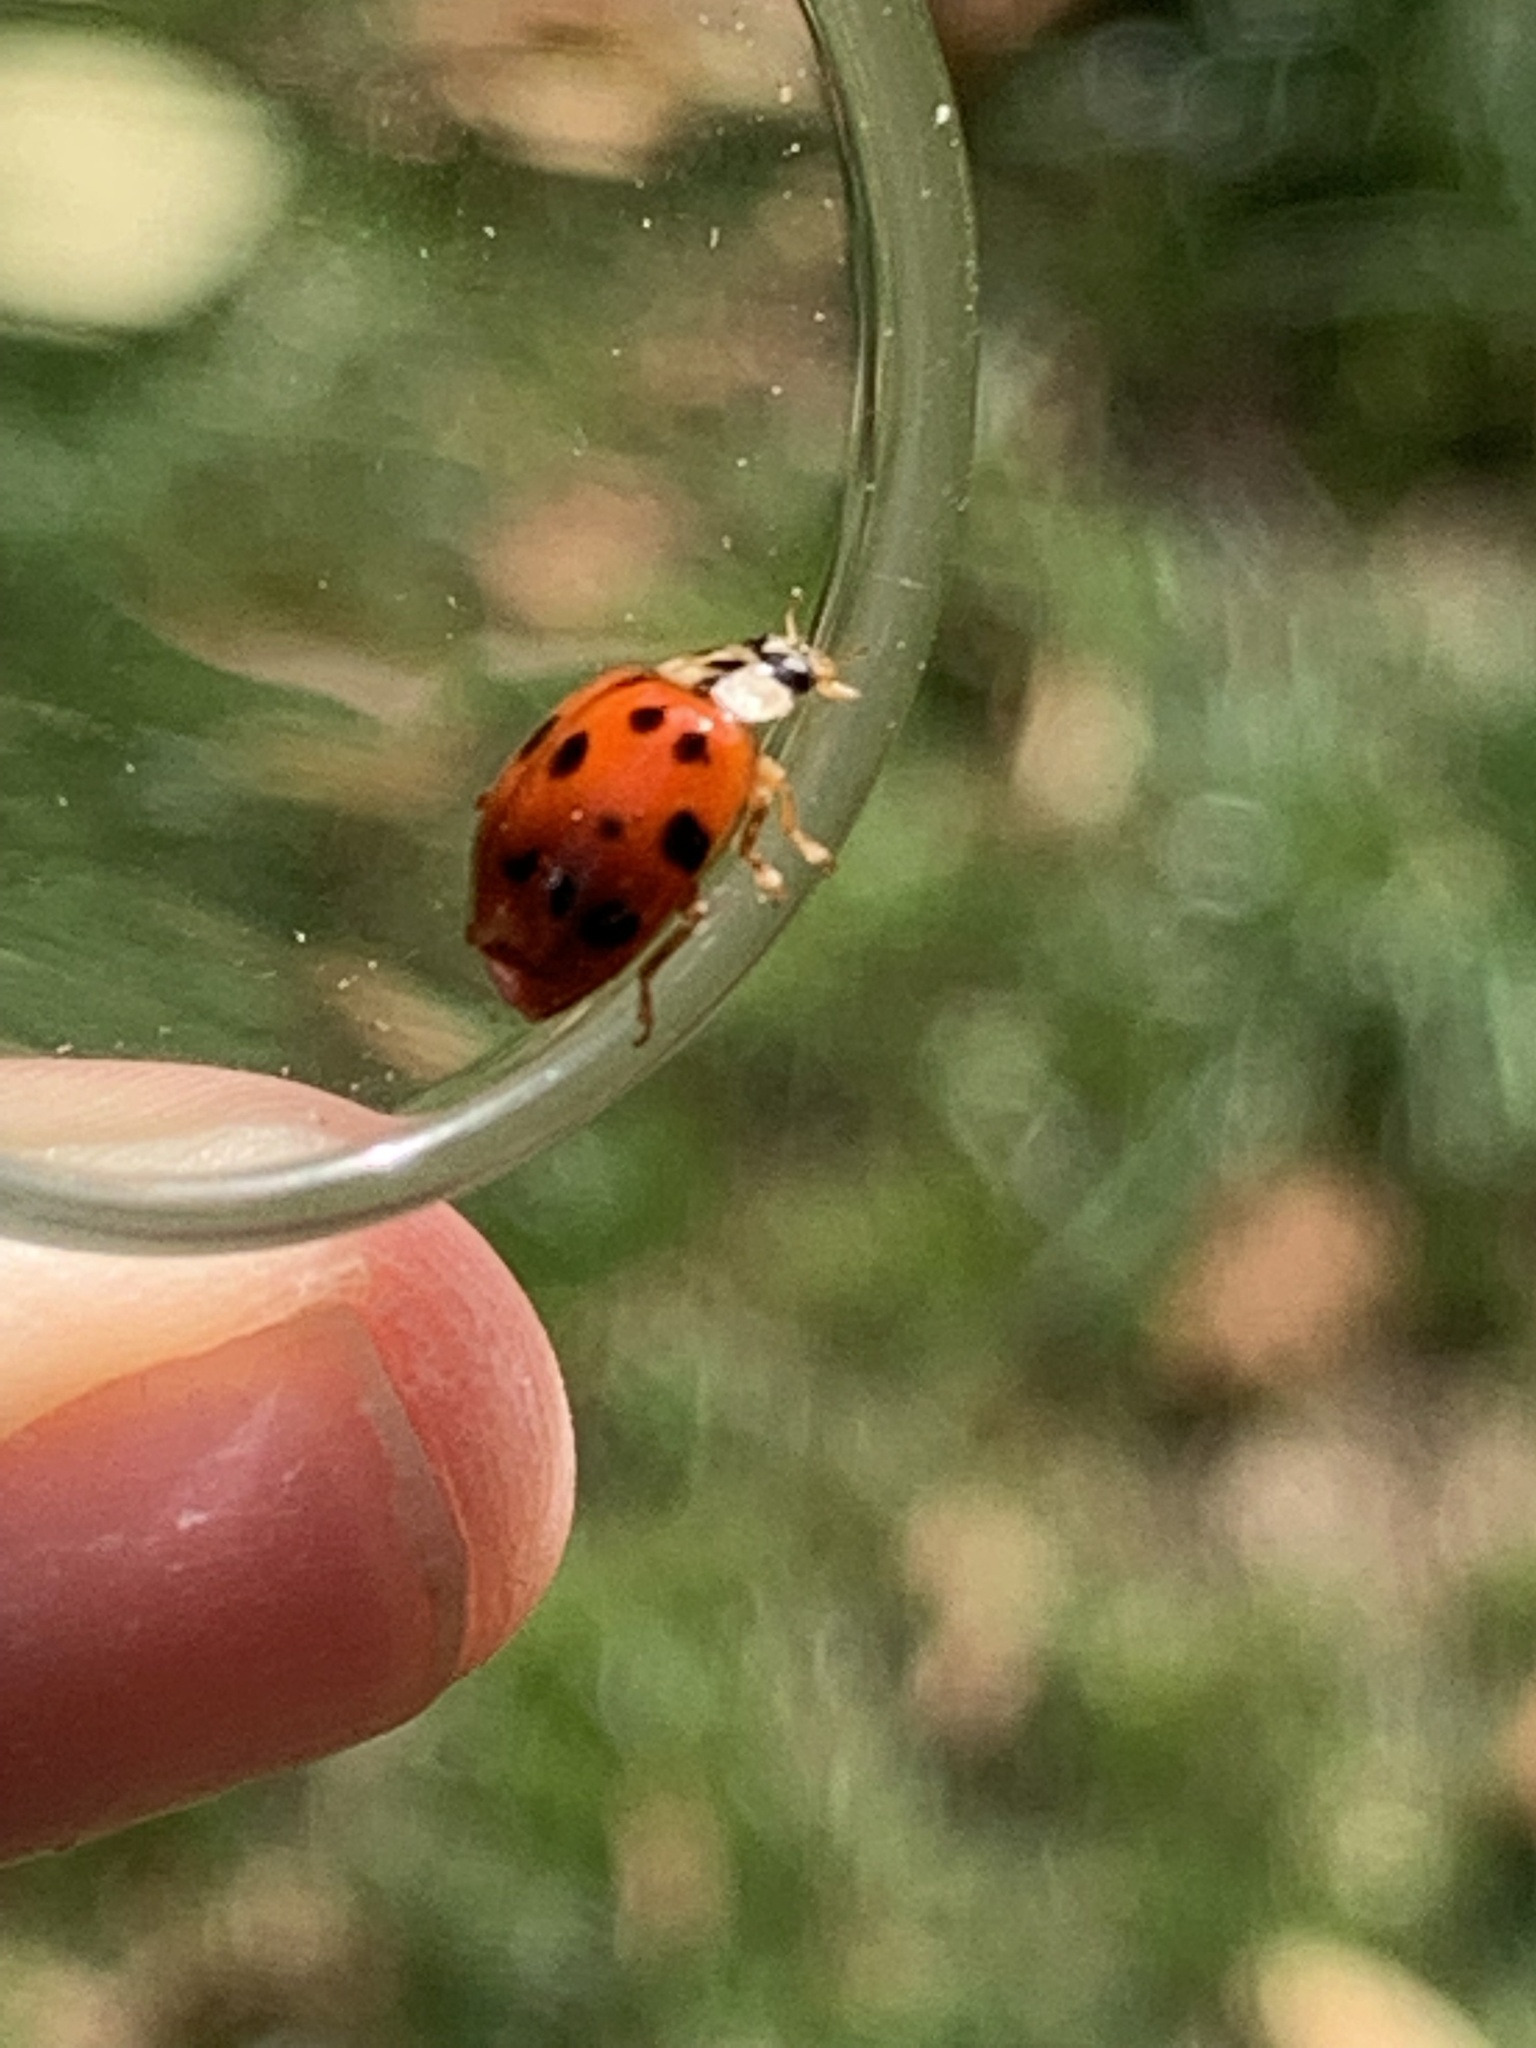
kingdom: Animalia
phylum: Arthropoda
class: Insecta
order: Coleoptera
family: Coccinellidae
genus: Harmonia
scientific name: Harmonia axyridis
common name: Harlequin ladybird
